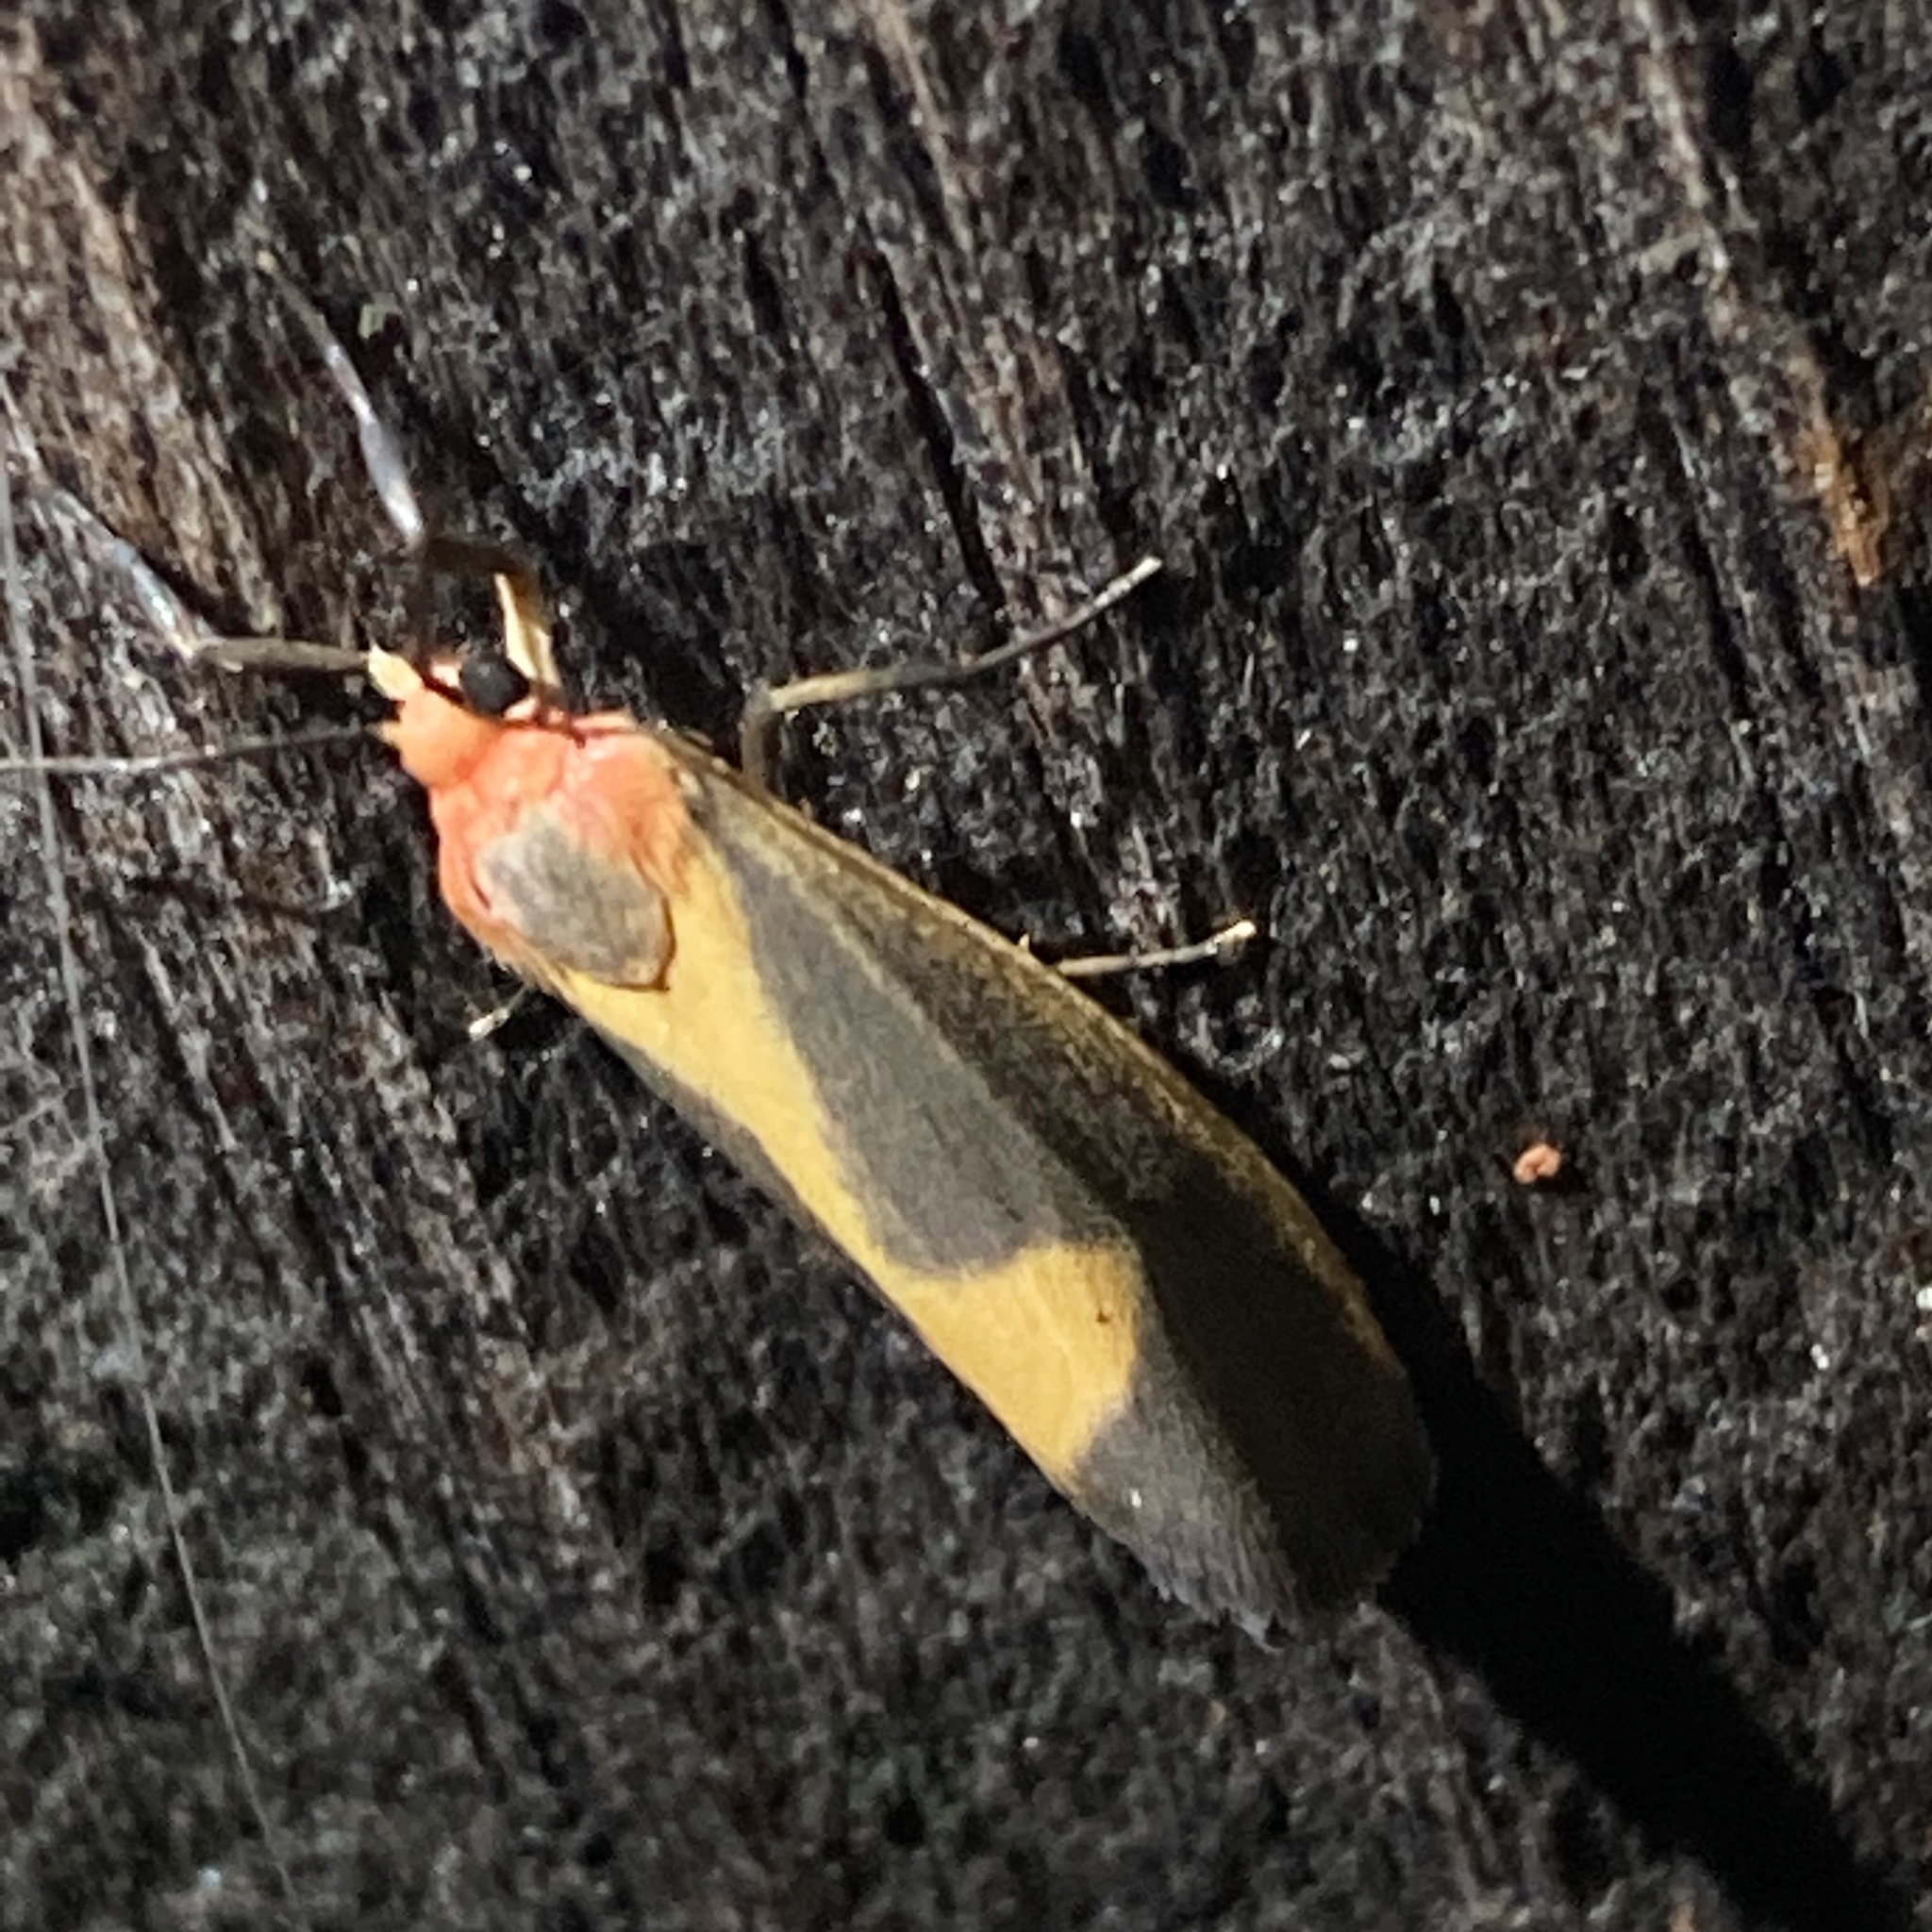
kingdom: Animalia
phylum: Arthropoda
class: Insecta
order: Lepidoptera
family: Erebidae
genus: Cisthene
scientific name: Cisthene plumbea
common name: Lead colored lichen moth
